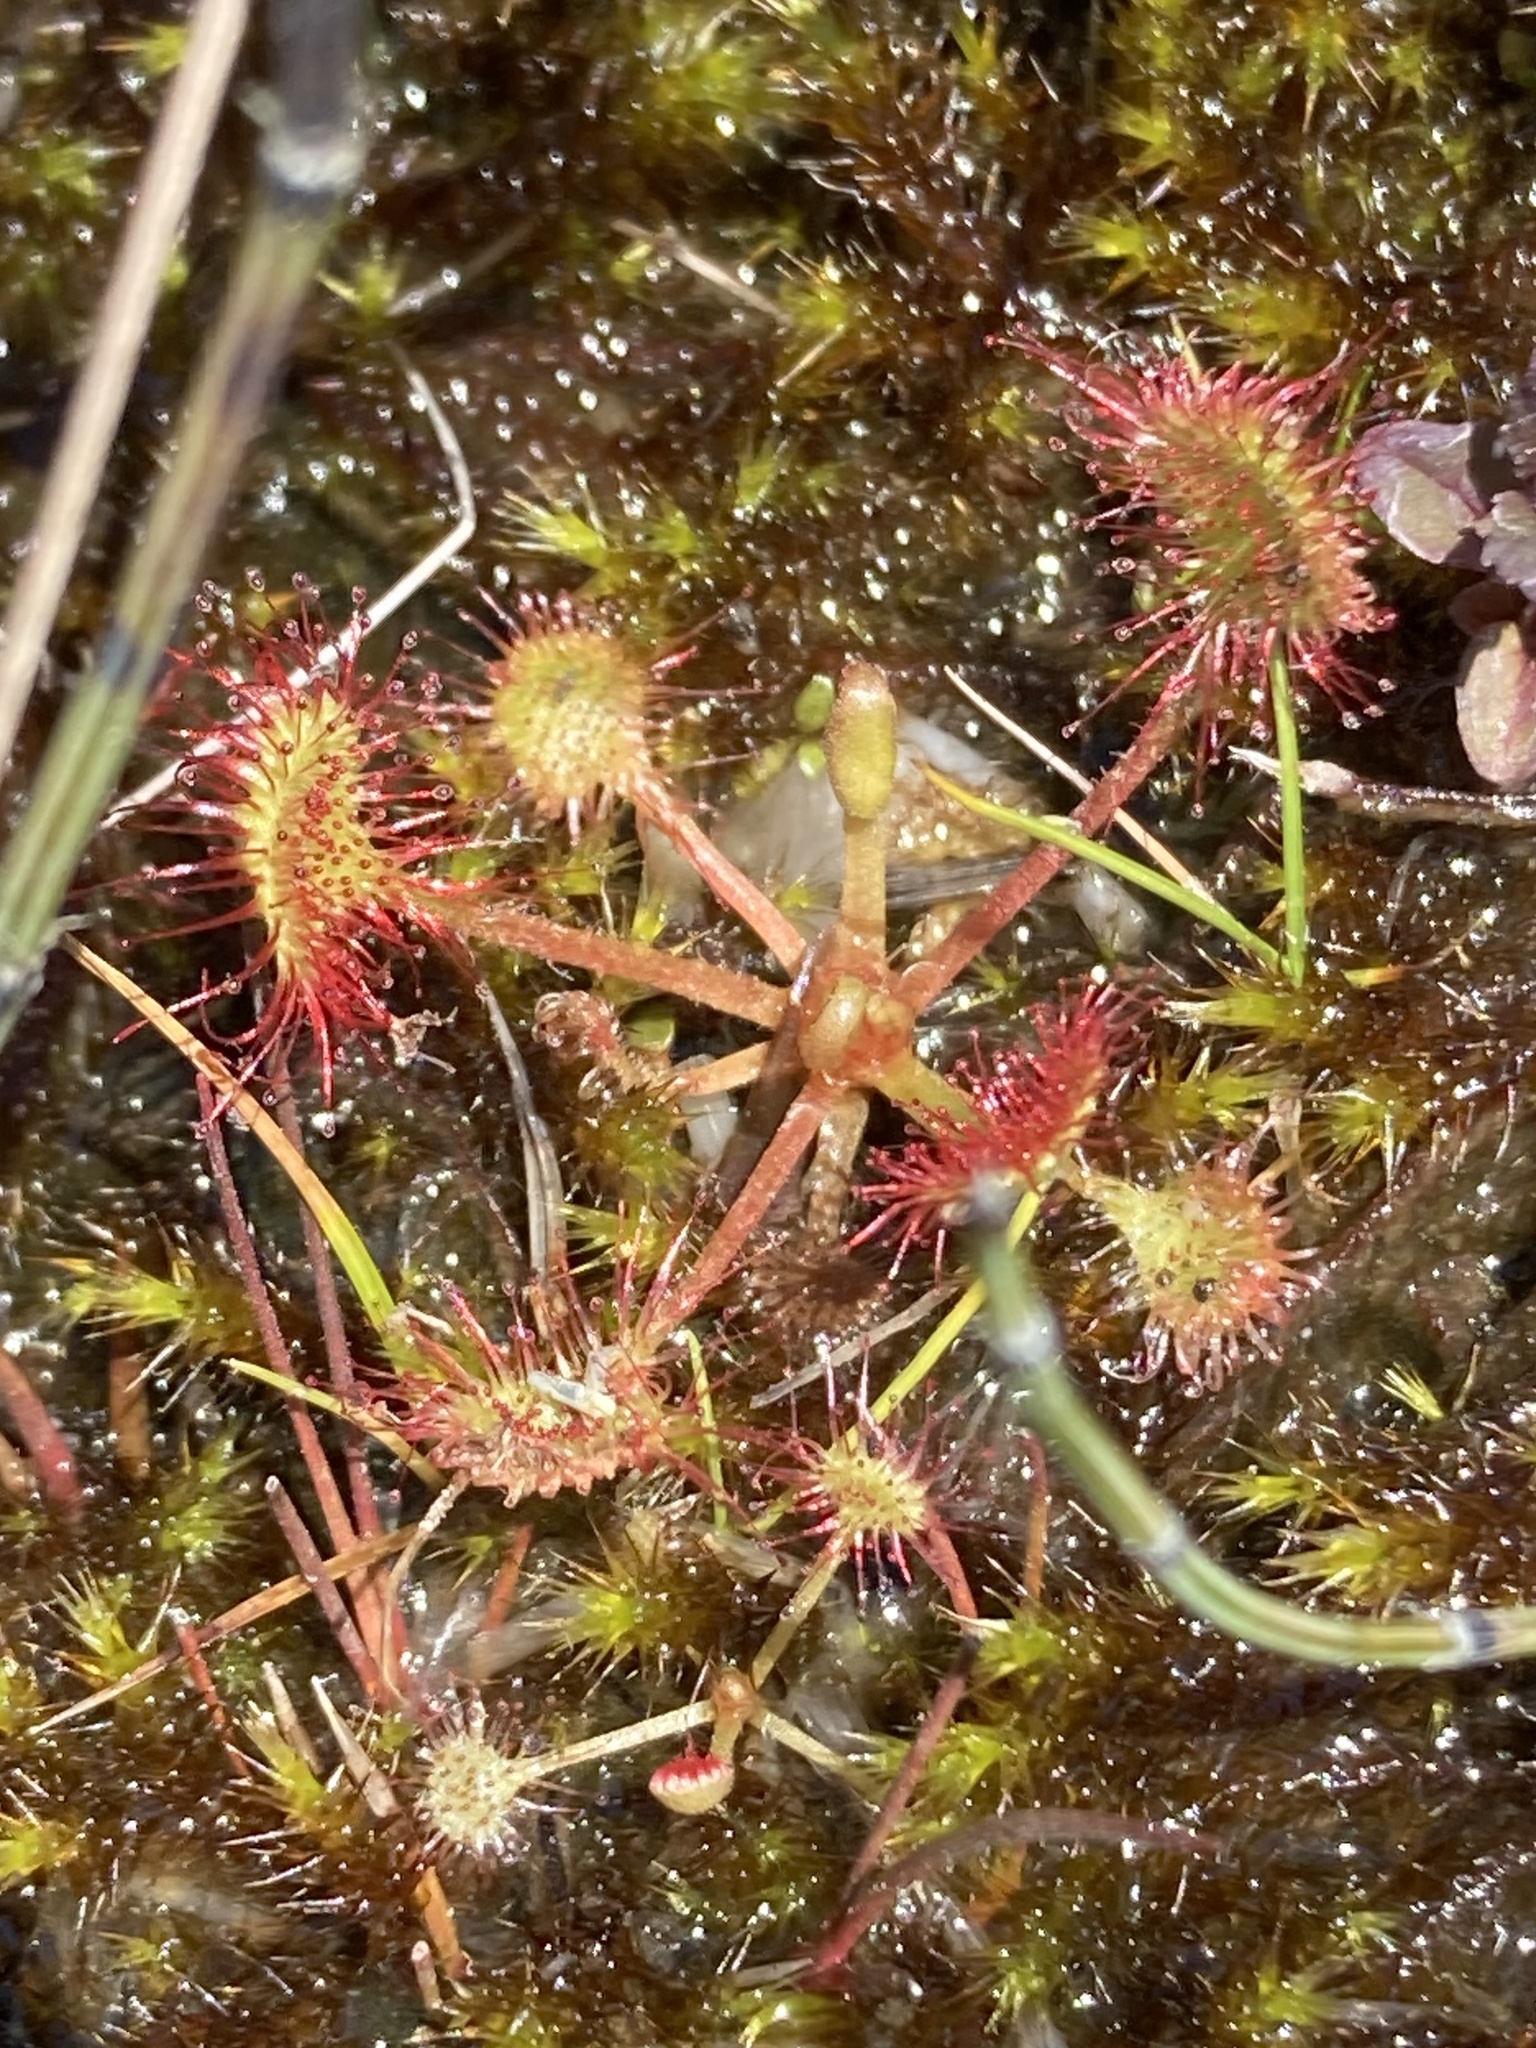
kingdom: Plantae
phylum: Tracheophyta
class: Magnoliopsida
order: Caryophyllales
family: Droseraceae
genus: Drosera
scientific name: Drosera rotundifolia
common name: Round-leaved sundew
